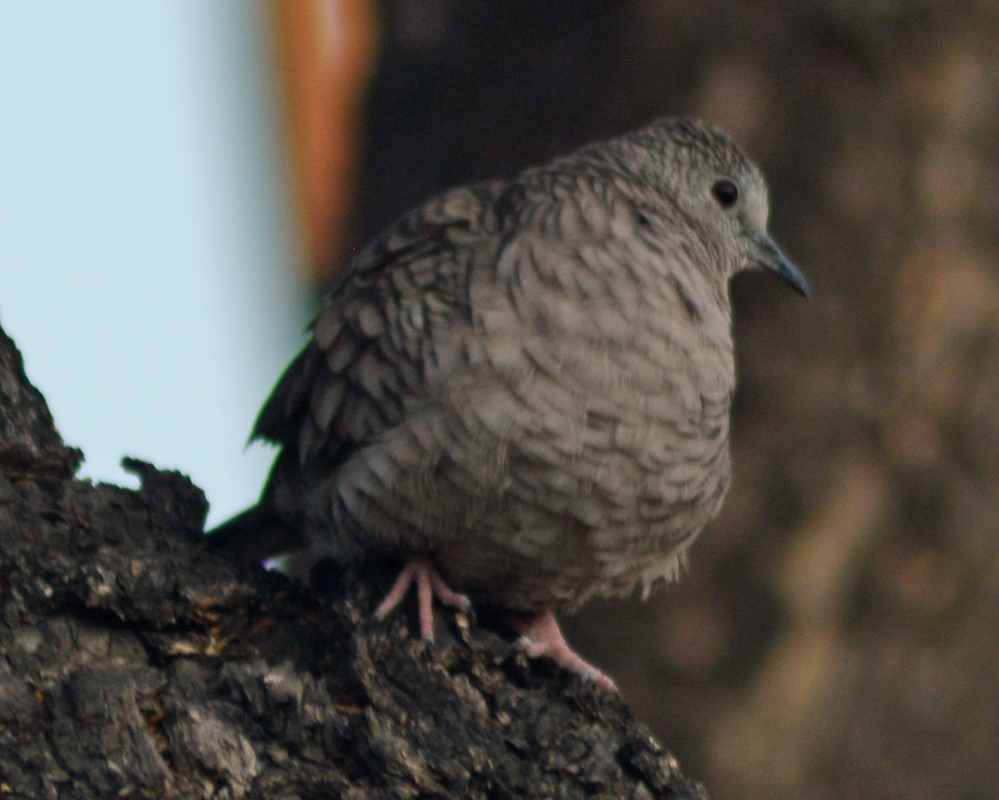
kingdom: Animalia
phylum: Chordata
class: Aves
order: Columbiformes
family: Columbidae
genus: Columbina
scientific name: Columbina inca
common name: Inca dove
